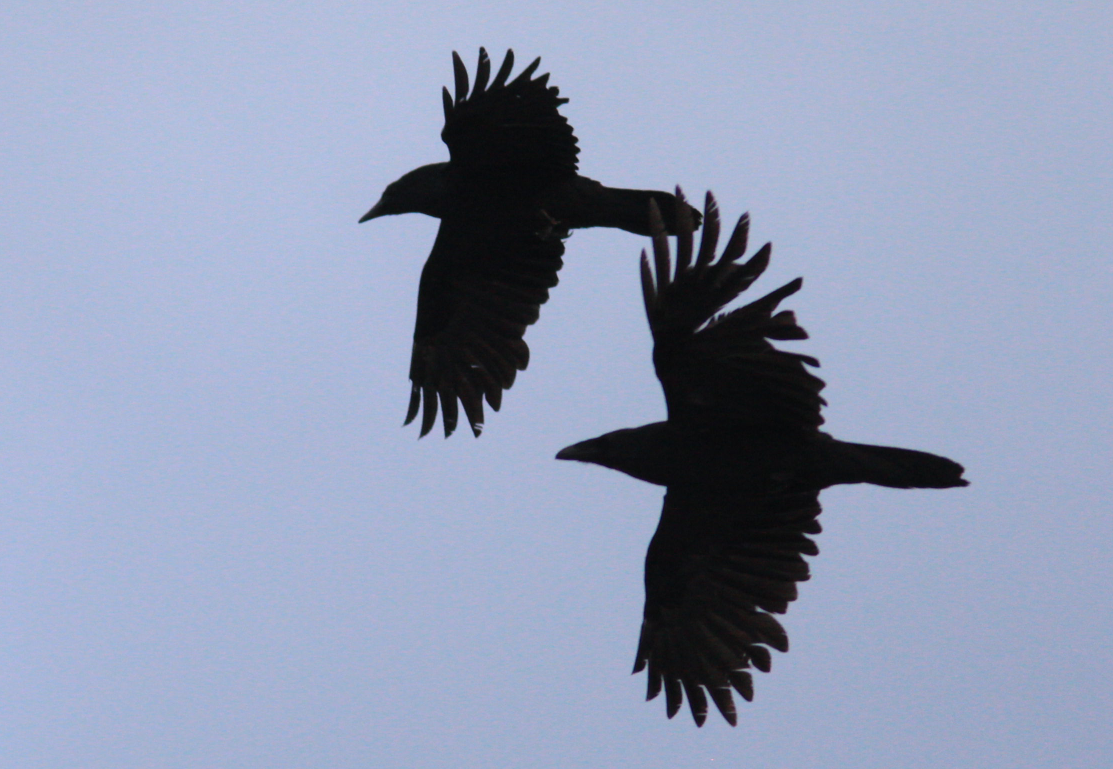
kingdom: Animalia
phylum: Chordata
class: Aves
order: Passeriformes
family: Corvidae
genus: Corvus
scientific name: Corvus corax
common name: Common raven
